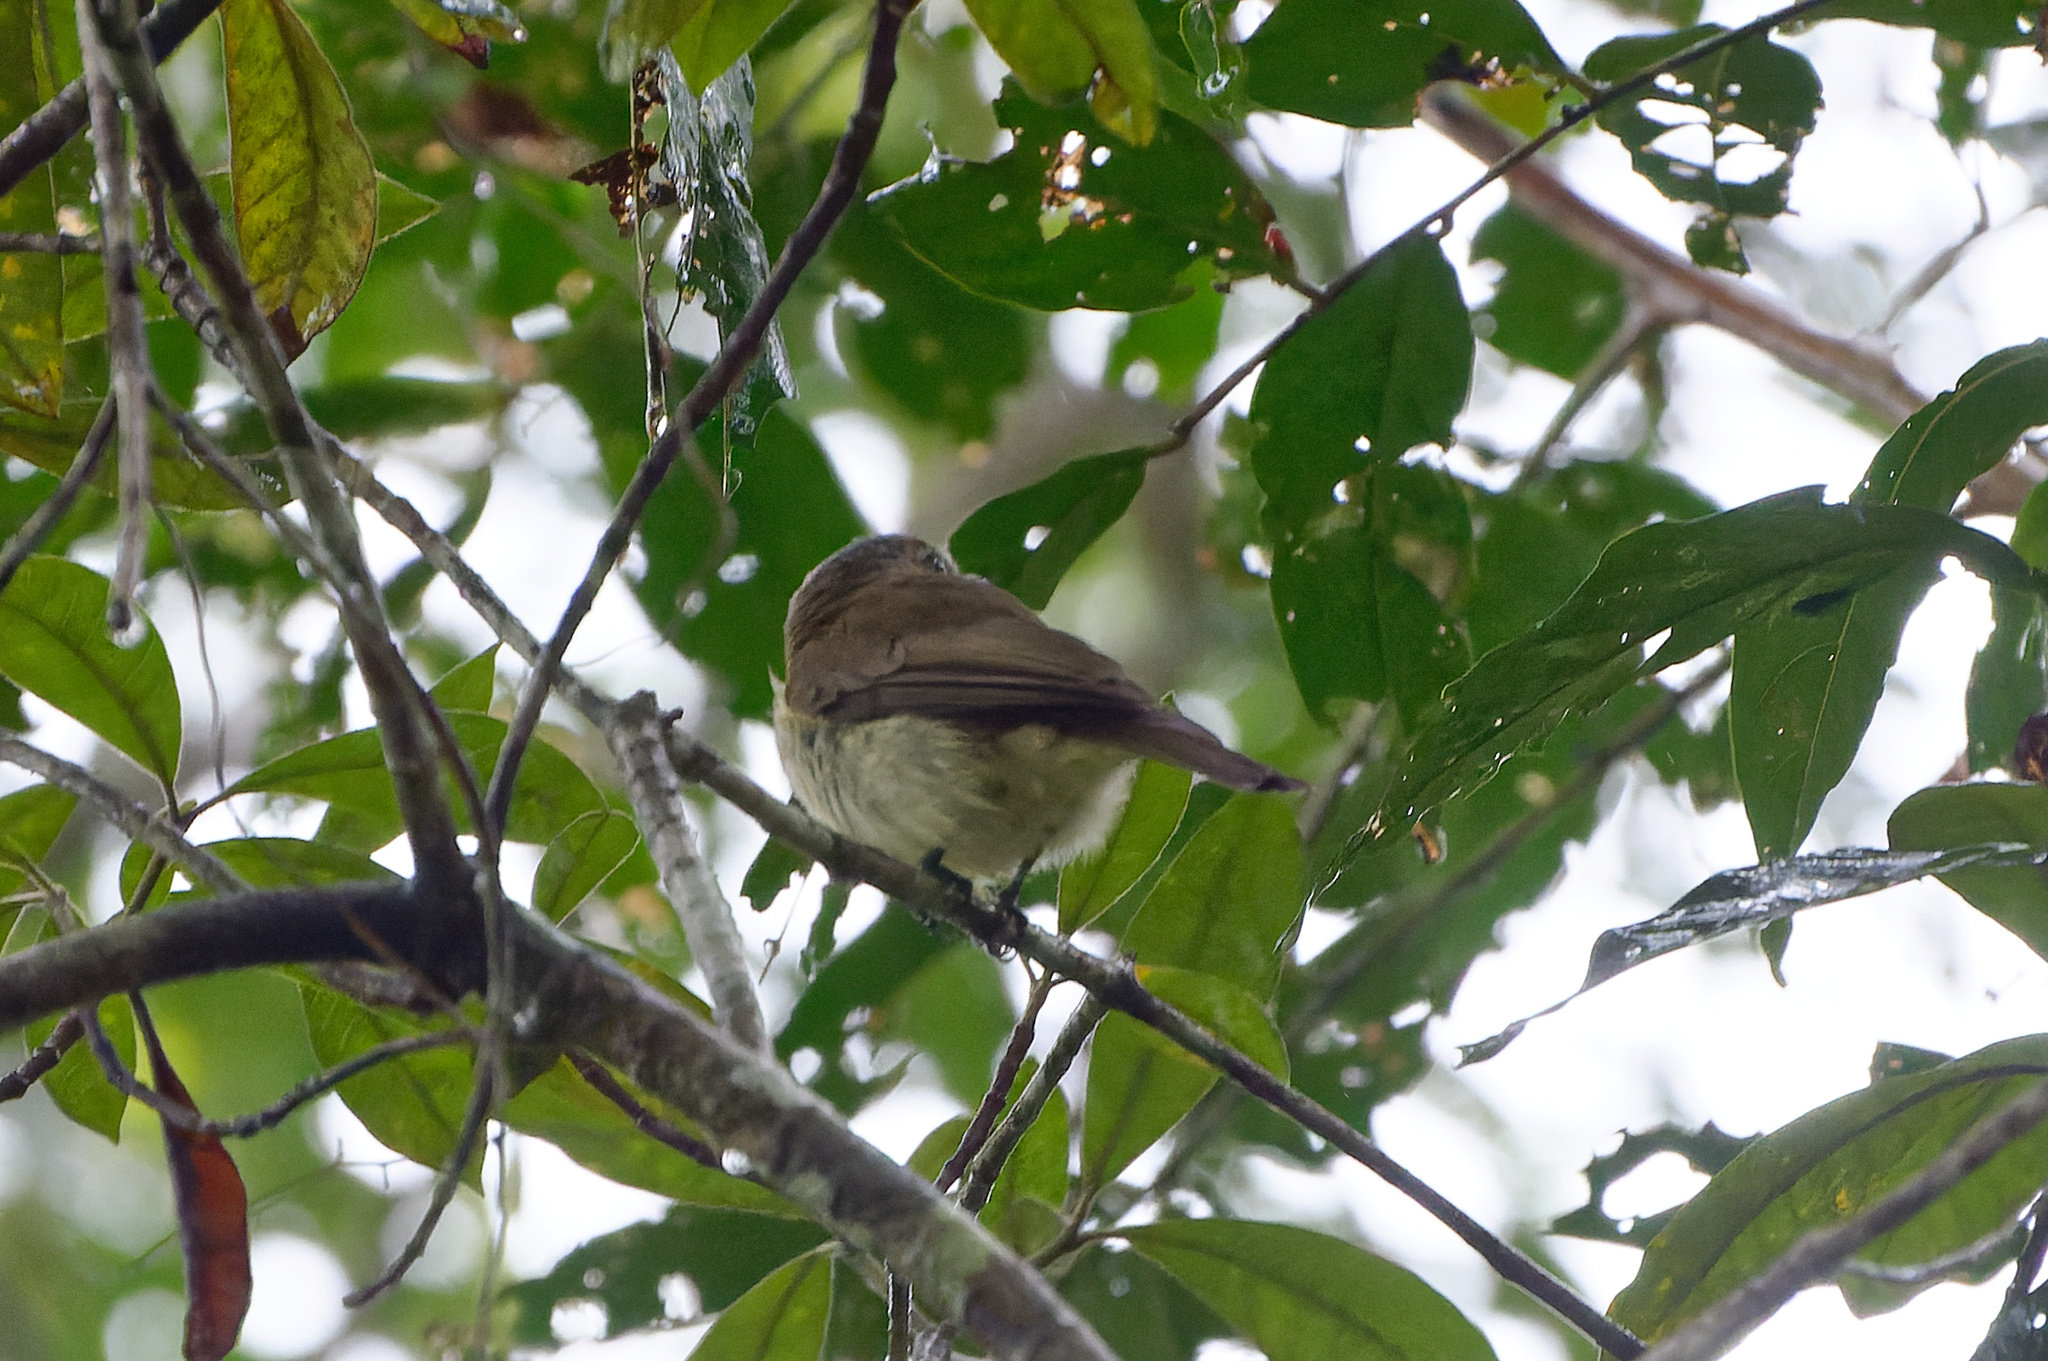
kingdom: Animalia
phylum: Chordata
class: Aves
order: Passeriformes
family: Pachycephalidae
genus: Pachycephala
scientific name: Pachycephala simplex
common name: Grey whistler
